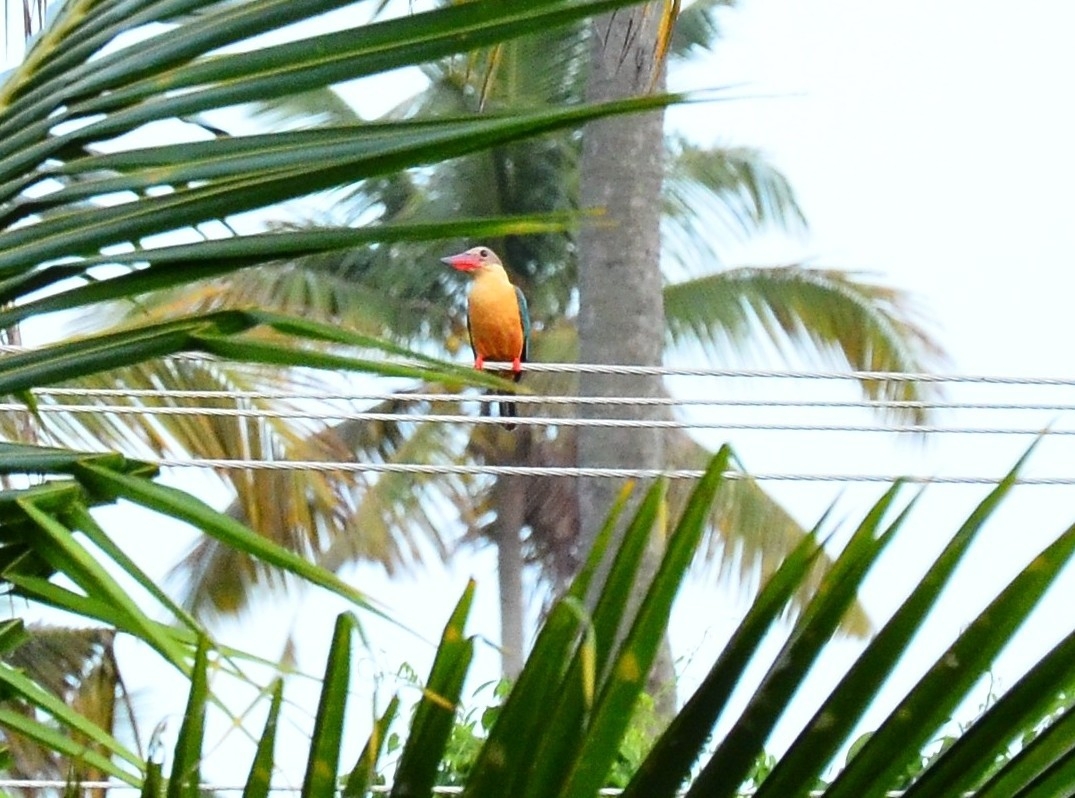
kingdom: Animalia
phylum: Chordata
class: Aves
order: Coraciiformes
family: Alcedinidae
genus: Pelargopsis
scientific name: Pelargopsis capensis
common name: Stork-billed kingfisher
